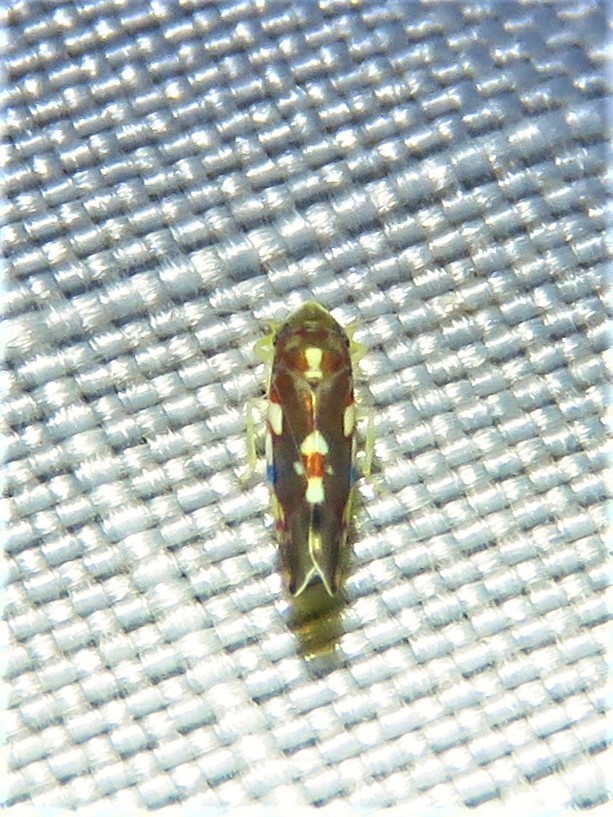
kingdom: Animalia
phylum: Arthropoda
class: Insecta
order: Hemiptera
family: Cicadellidae
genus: Erythroneura
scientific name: Erythroneura prosata
